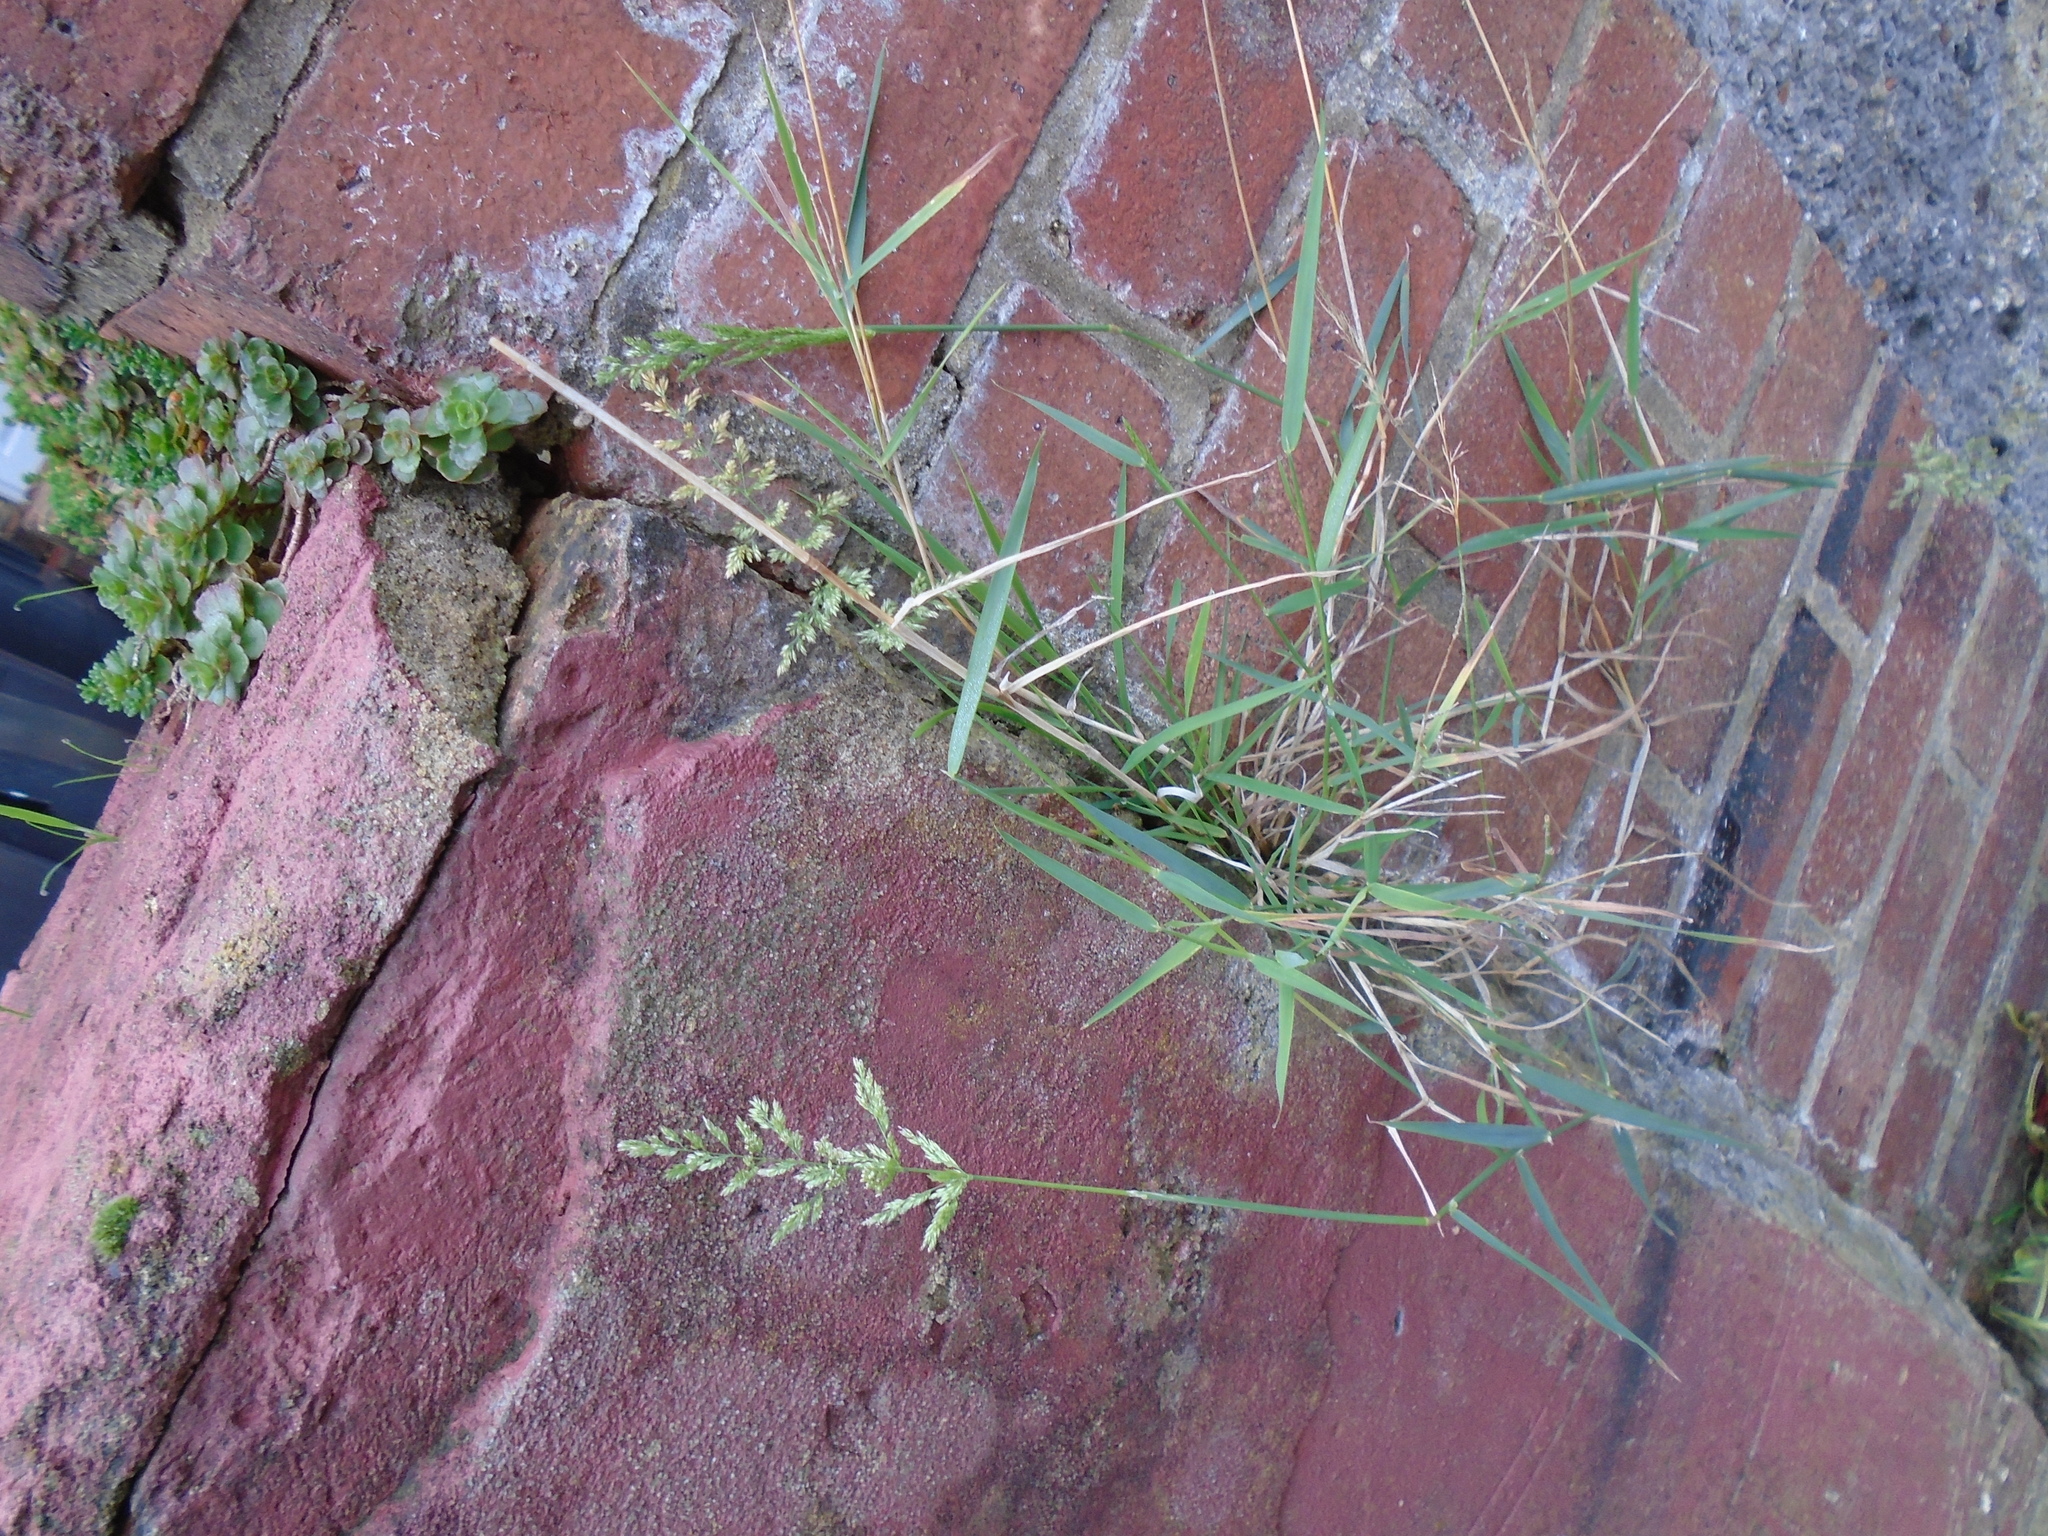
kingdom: Plantae
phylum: Tracheophyta
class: Liliopsida
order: Poales
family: Poaceae
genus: Polypogon
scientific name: Polypogon viridis
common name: Water bent
